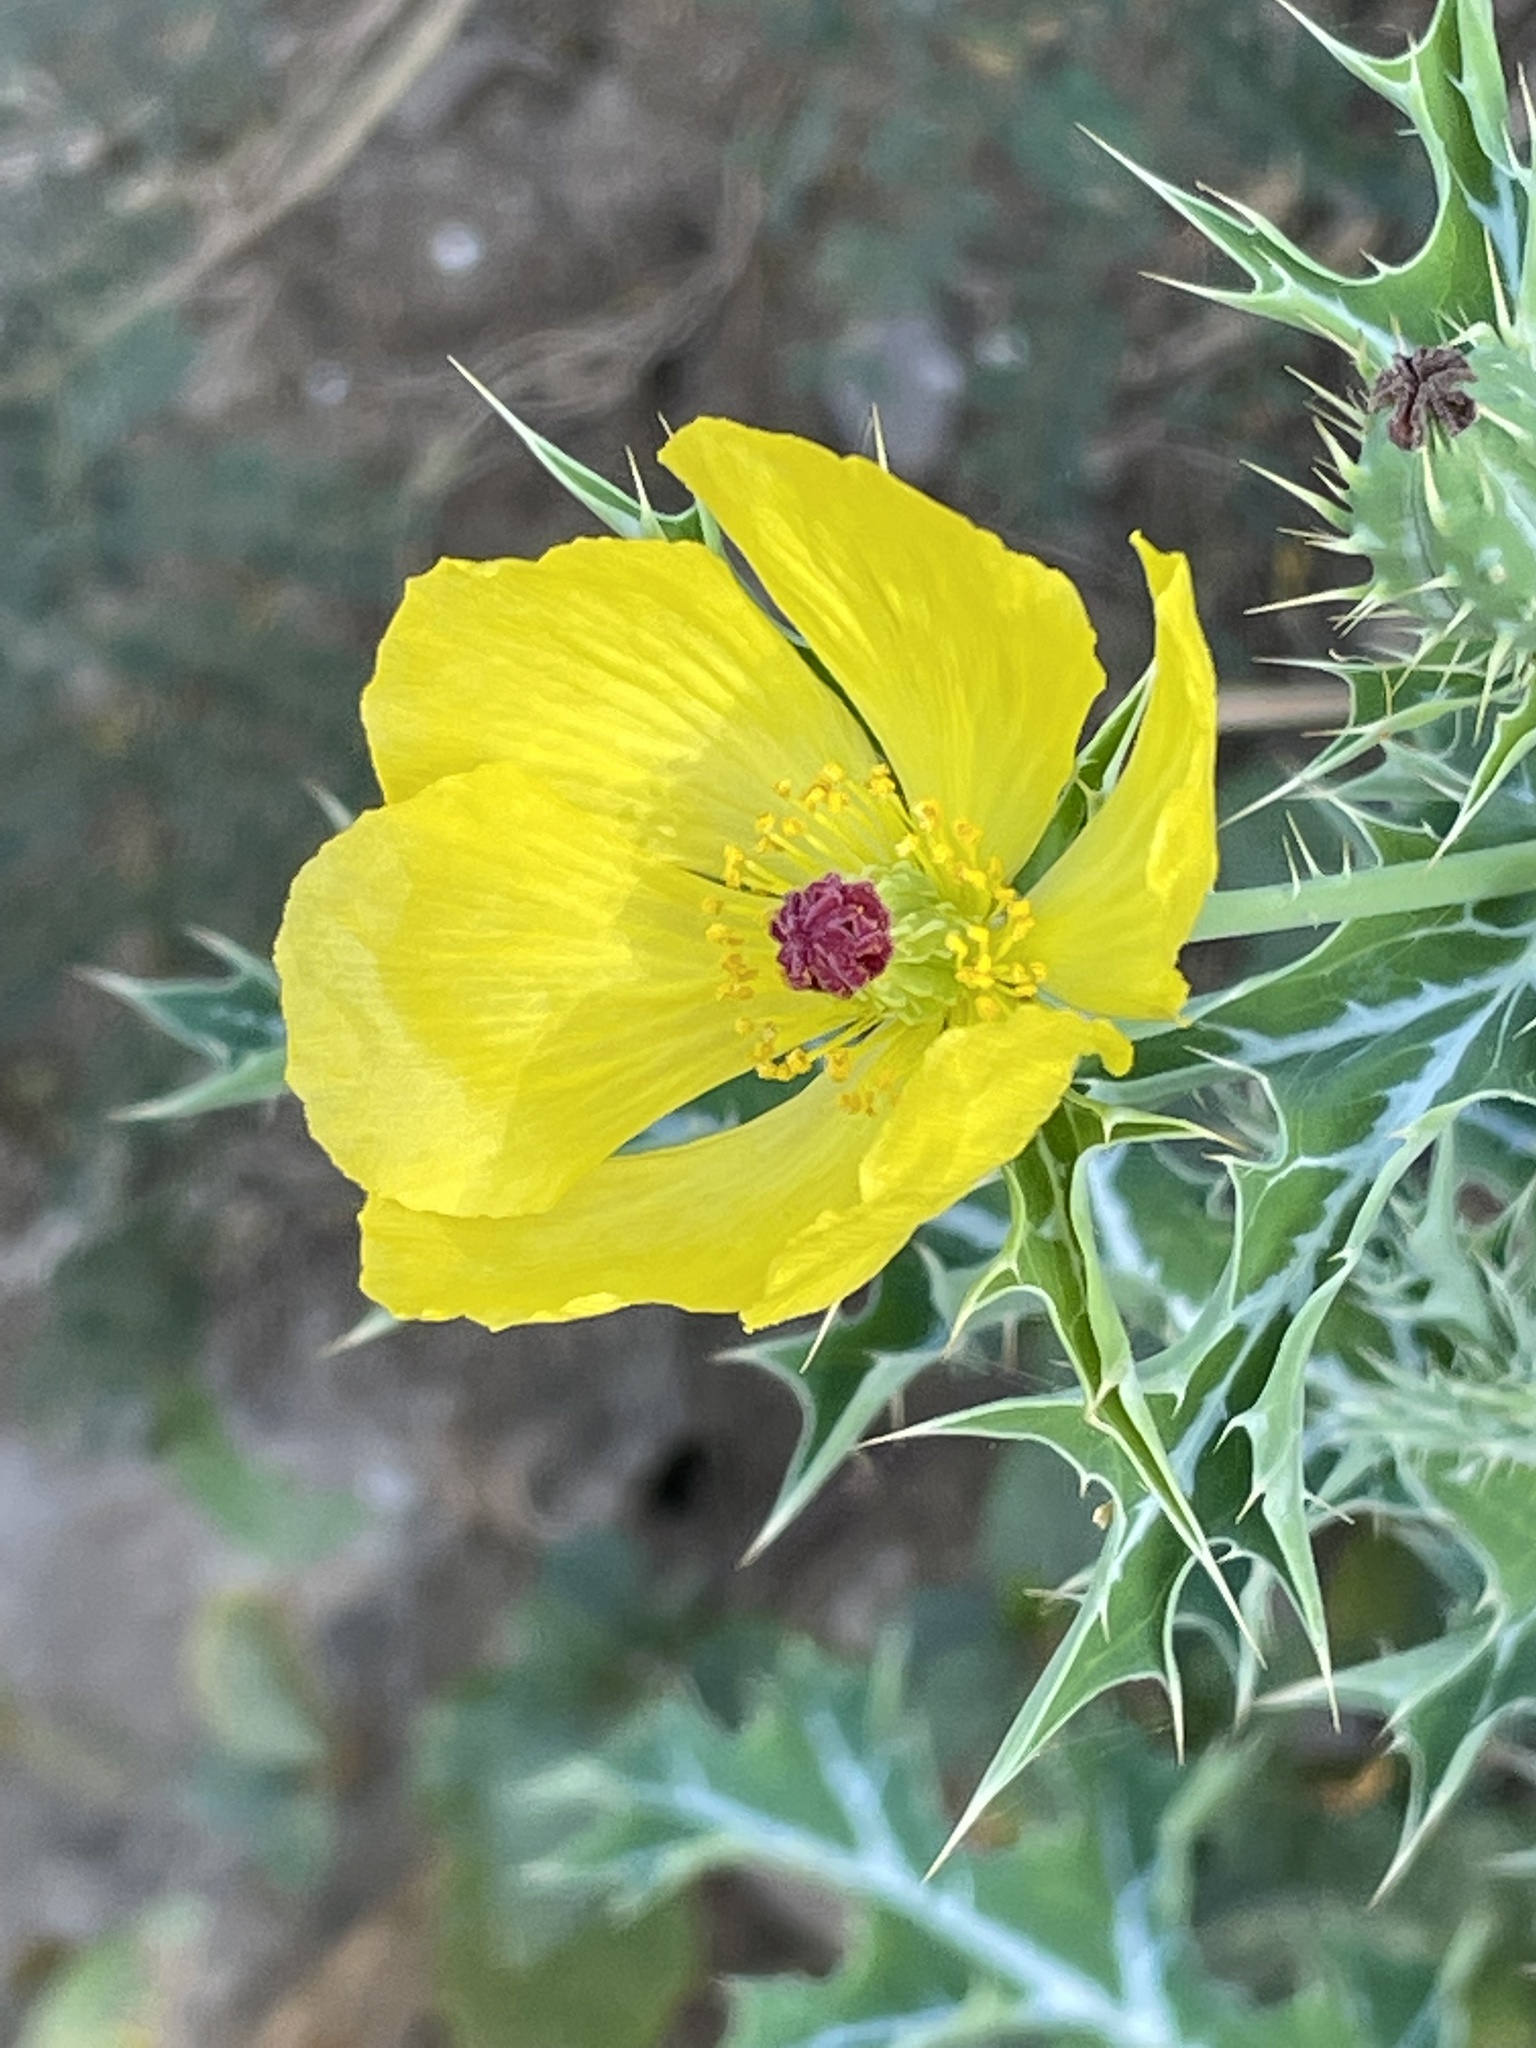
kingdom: Plantae
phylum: Tracheophyta
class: Magnoliopsida
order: Ranunculales
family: Papaveraceae
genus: Argemone
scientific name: Argemone mexicana
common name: Mexican poppy
